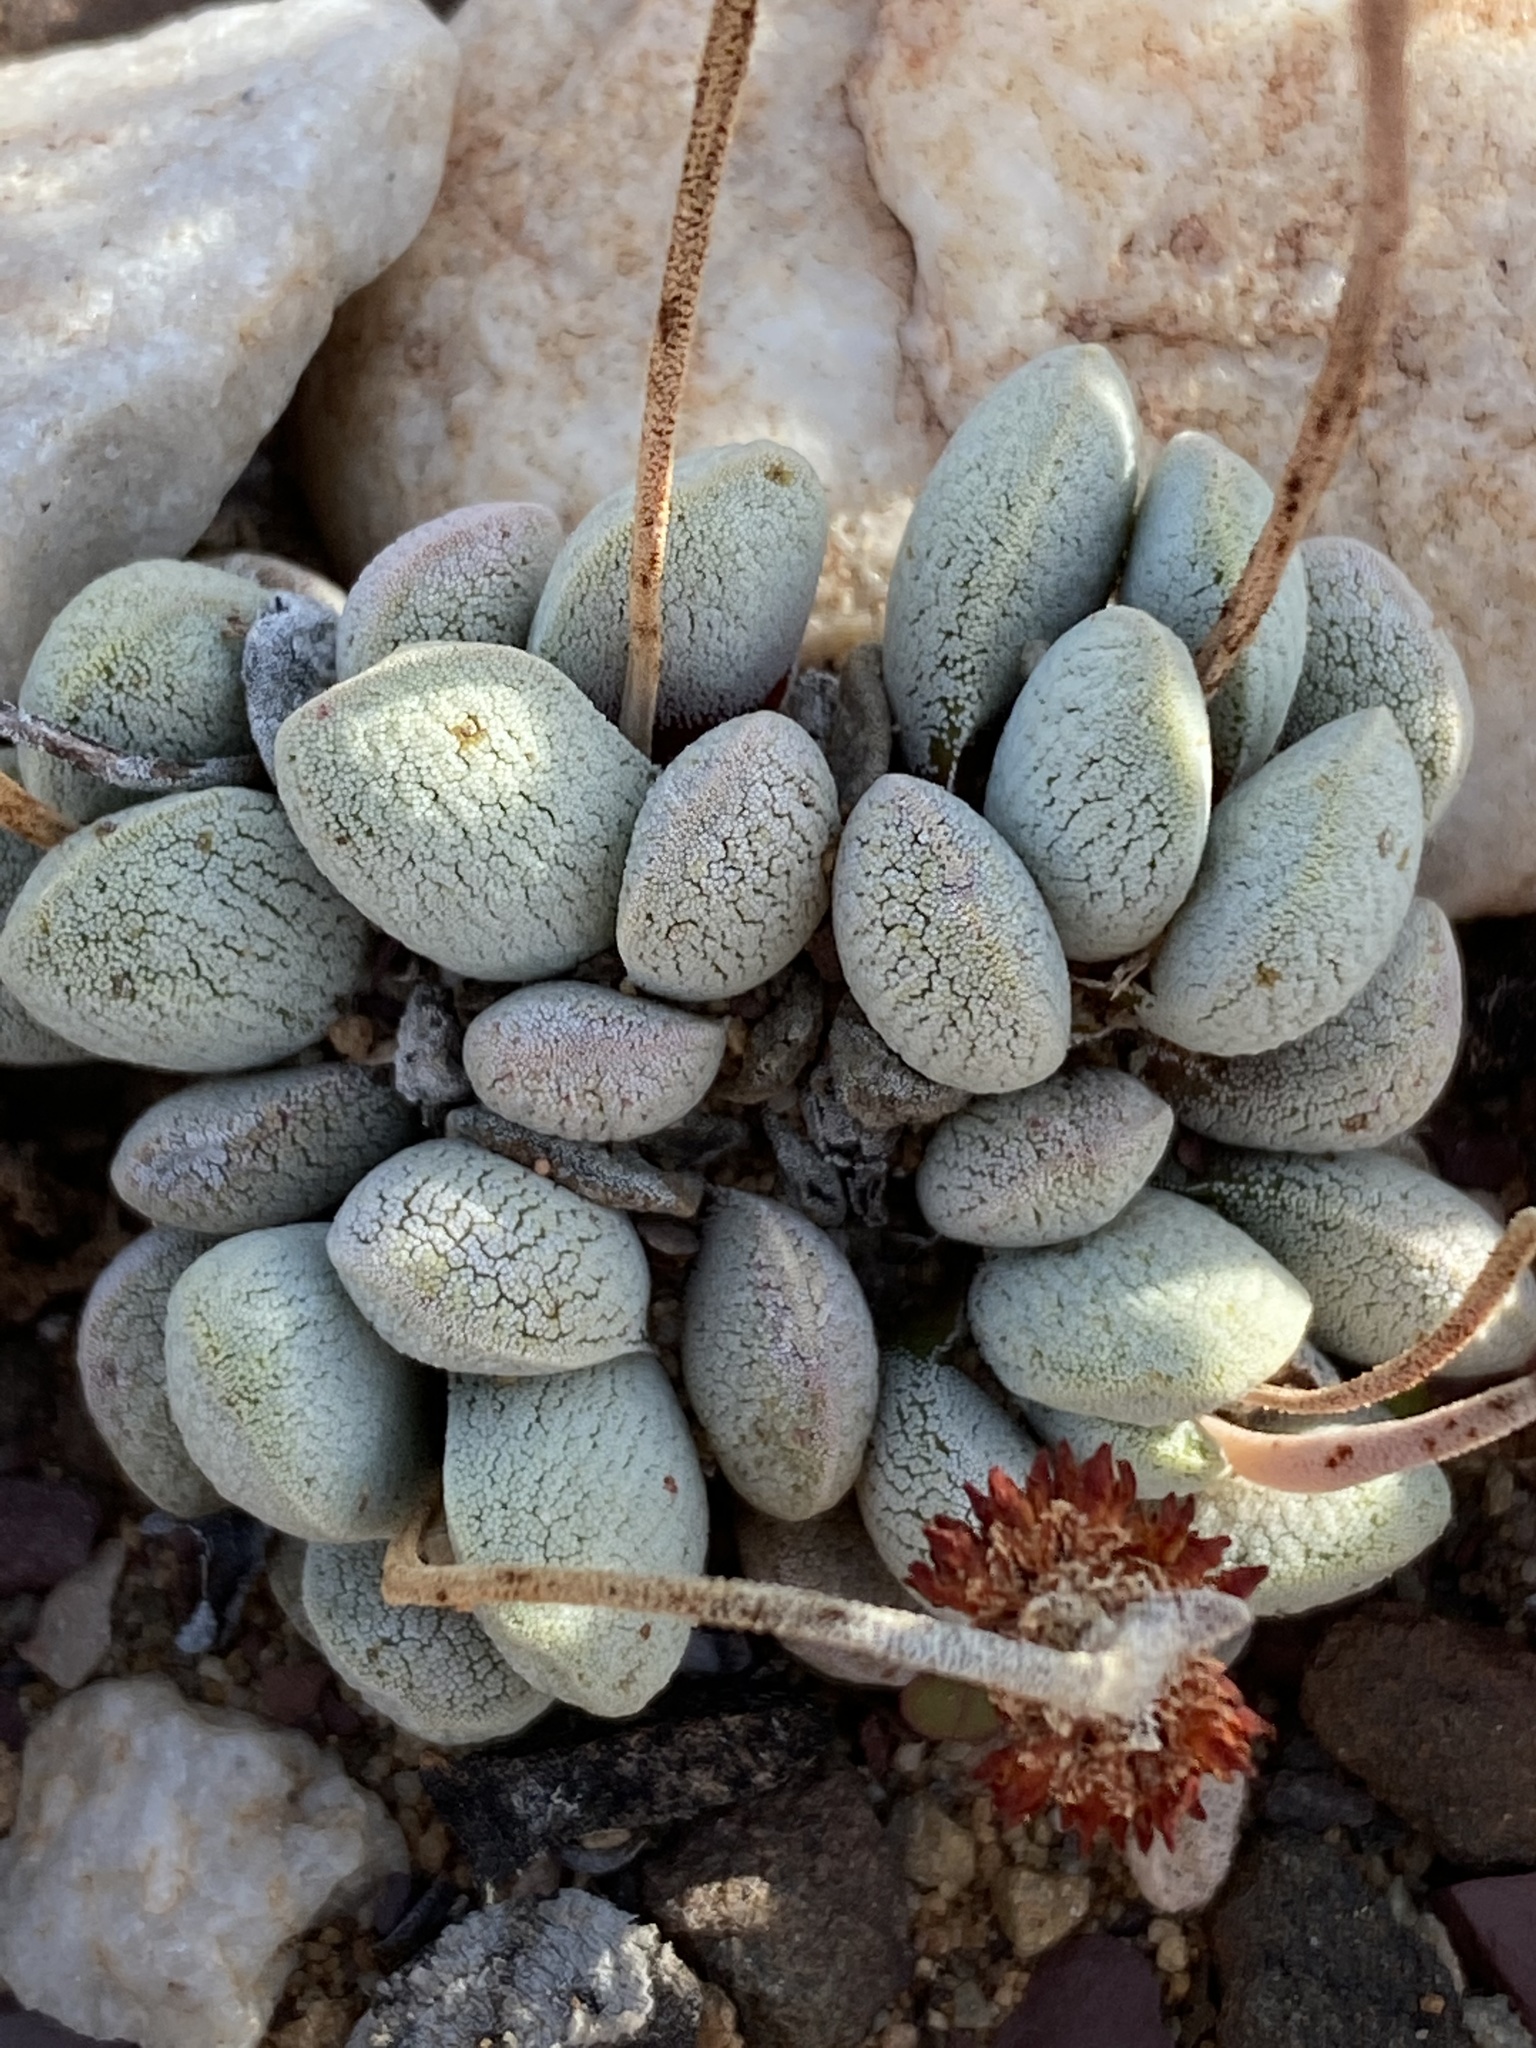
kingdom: Plantae
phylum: Tracheophyta
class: Magnoliopsida
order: Saxifragales
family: Crassulaceae
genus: Crassula
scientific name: Crassula tecta
